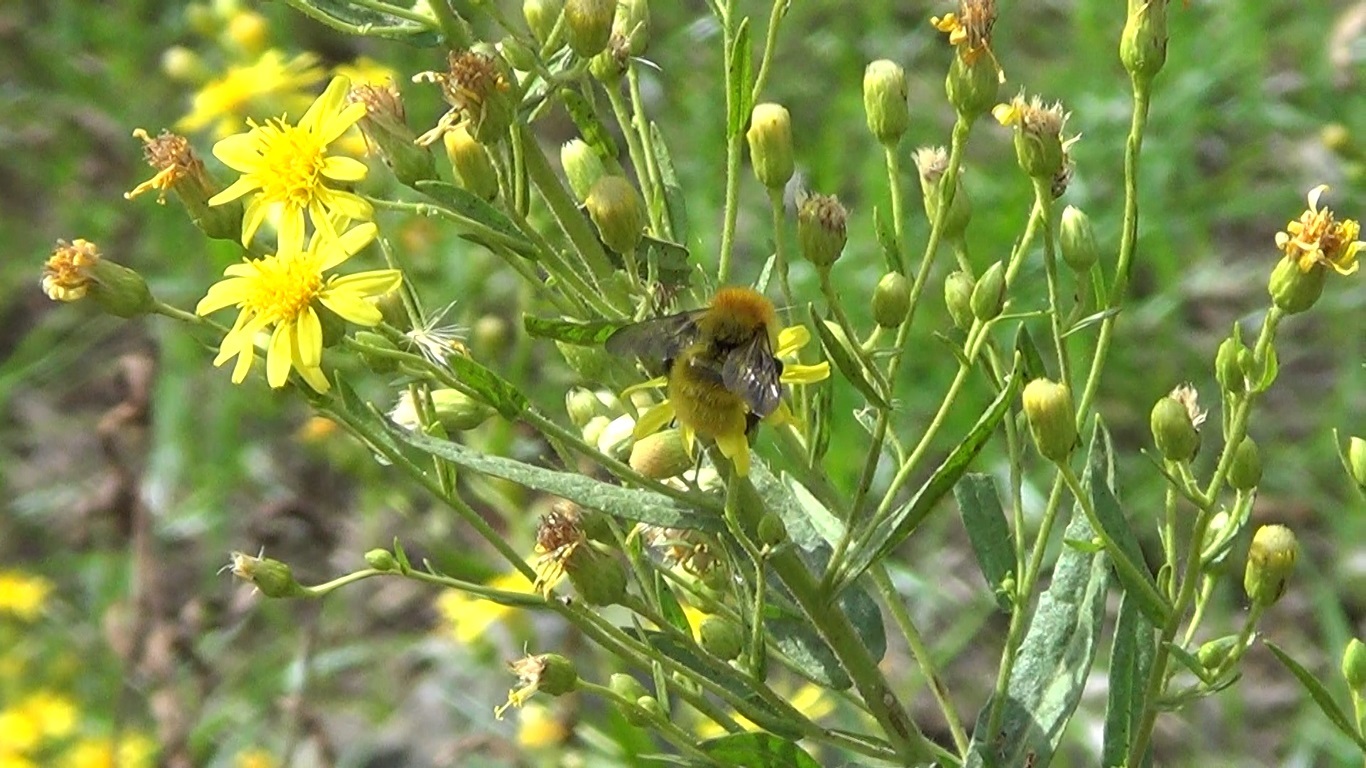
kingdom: Animalia
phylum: Arthropoda
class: Insecta
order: Hymenoptera
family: Apidae
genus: Bombus
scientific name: Bombus pascuorum
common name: Common carder bee
